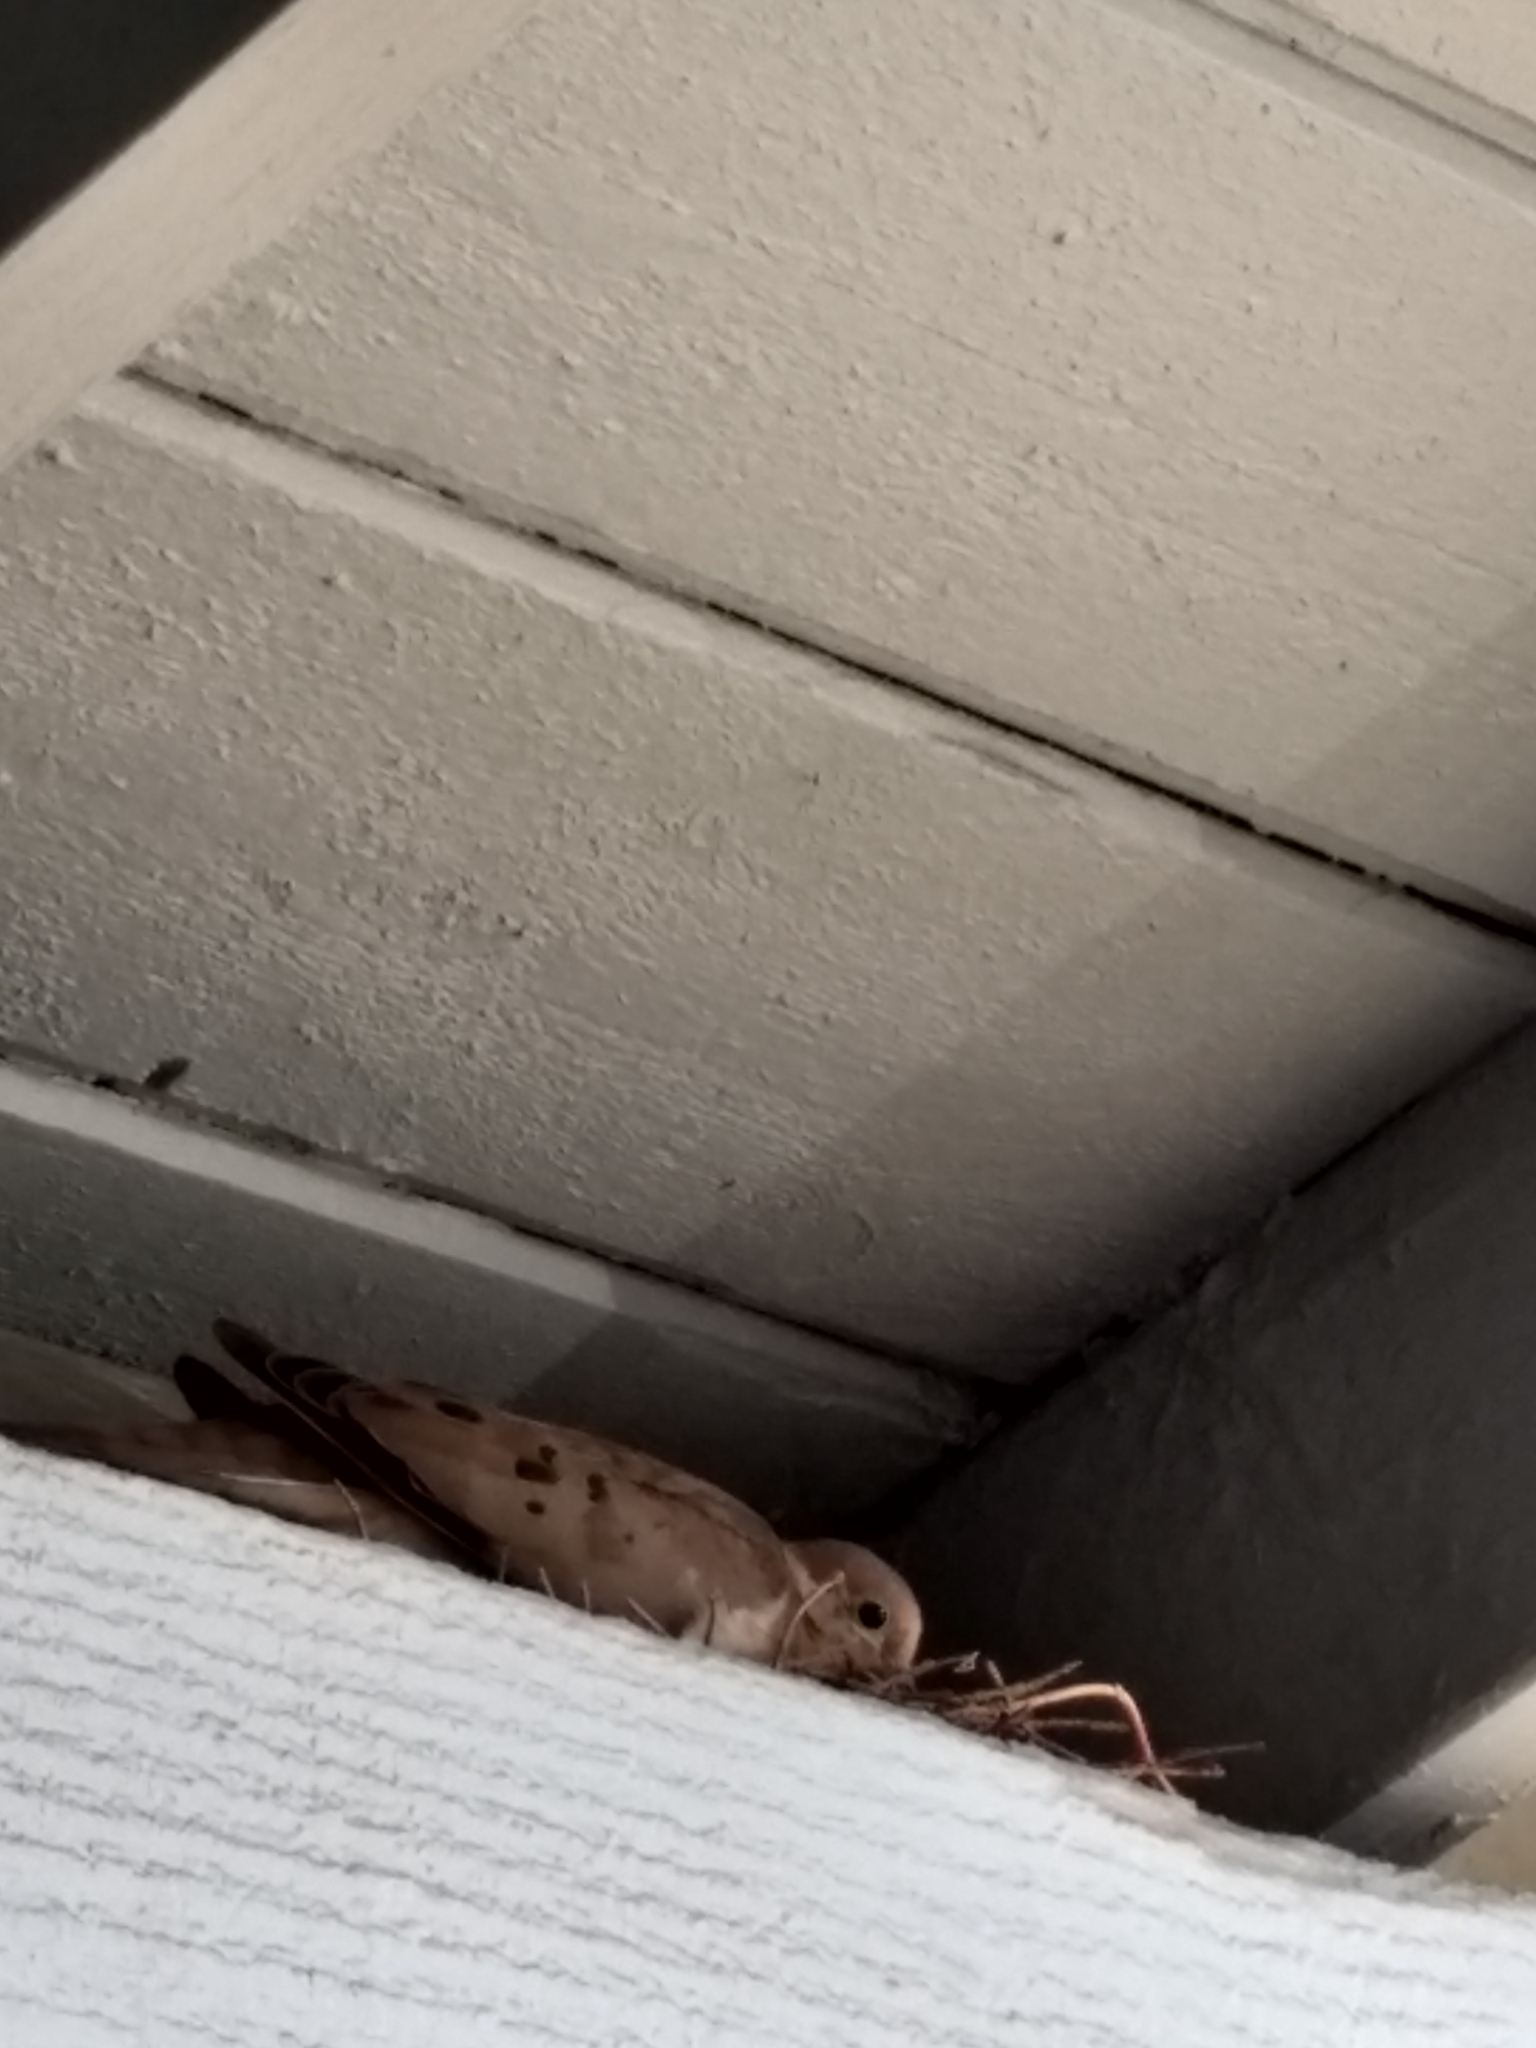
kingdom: Animalia
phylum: Chordata
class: Aves
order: Columbiformes
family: Columbidae
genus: Zenaida
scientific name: Zenaida macroura
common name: Mourning dove
